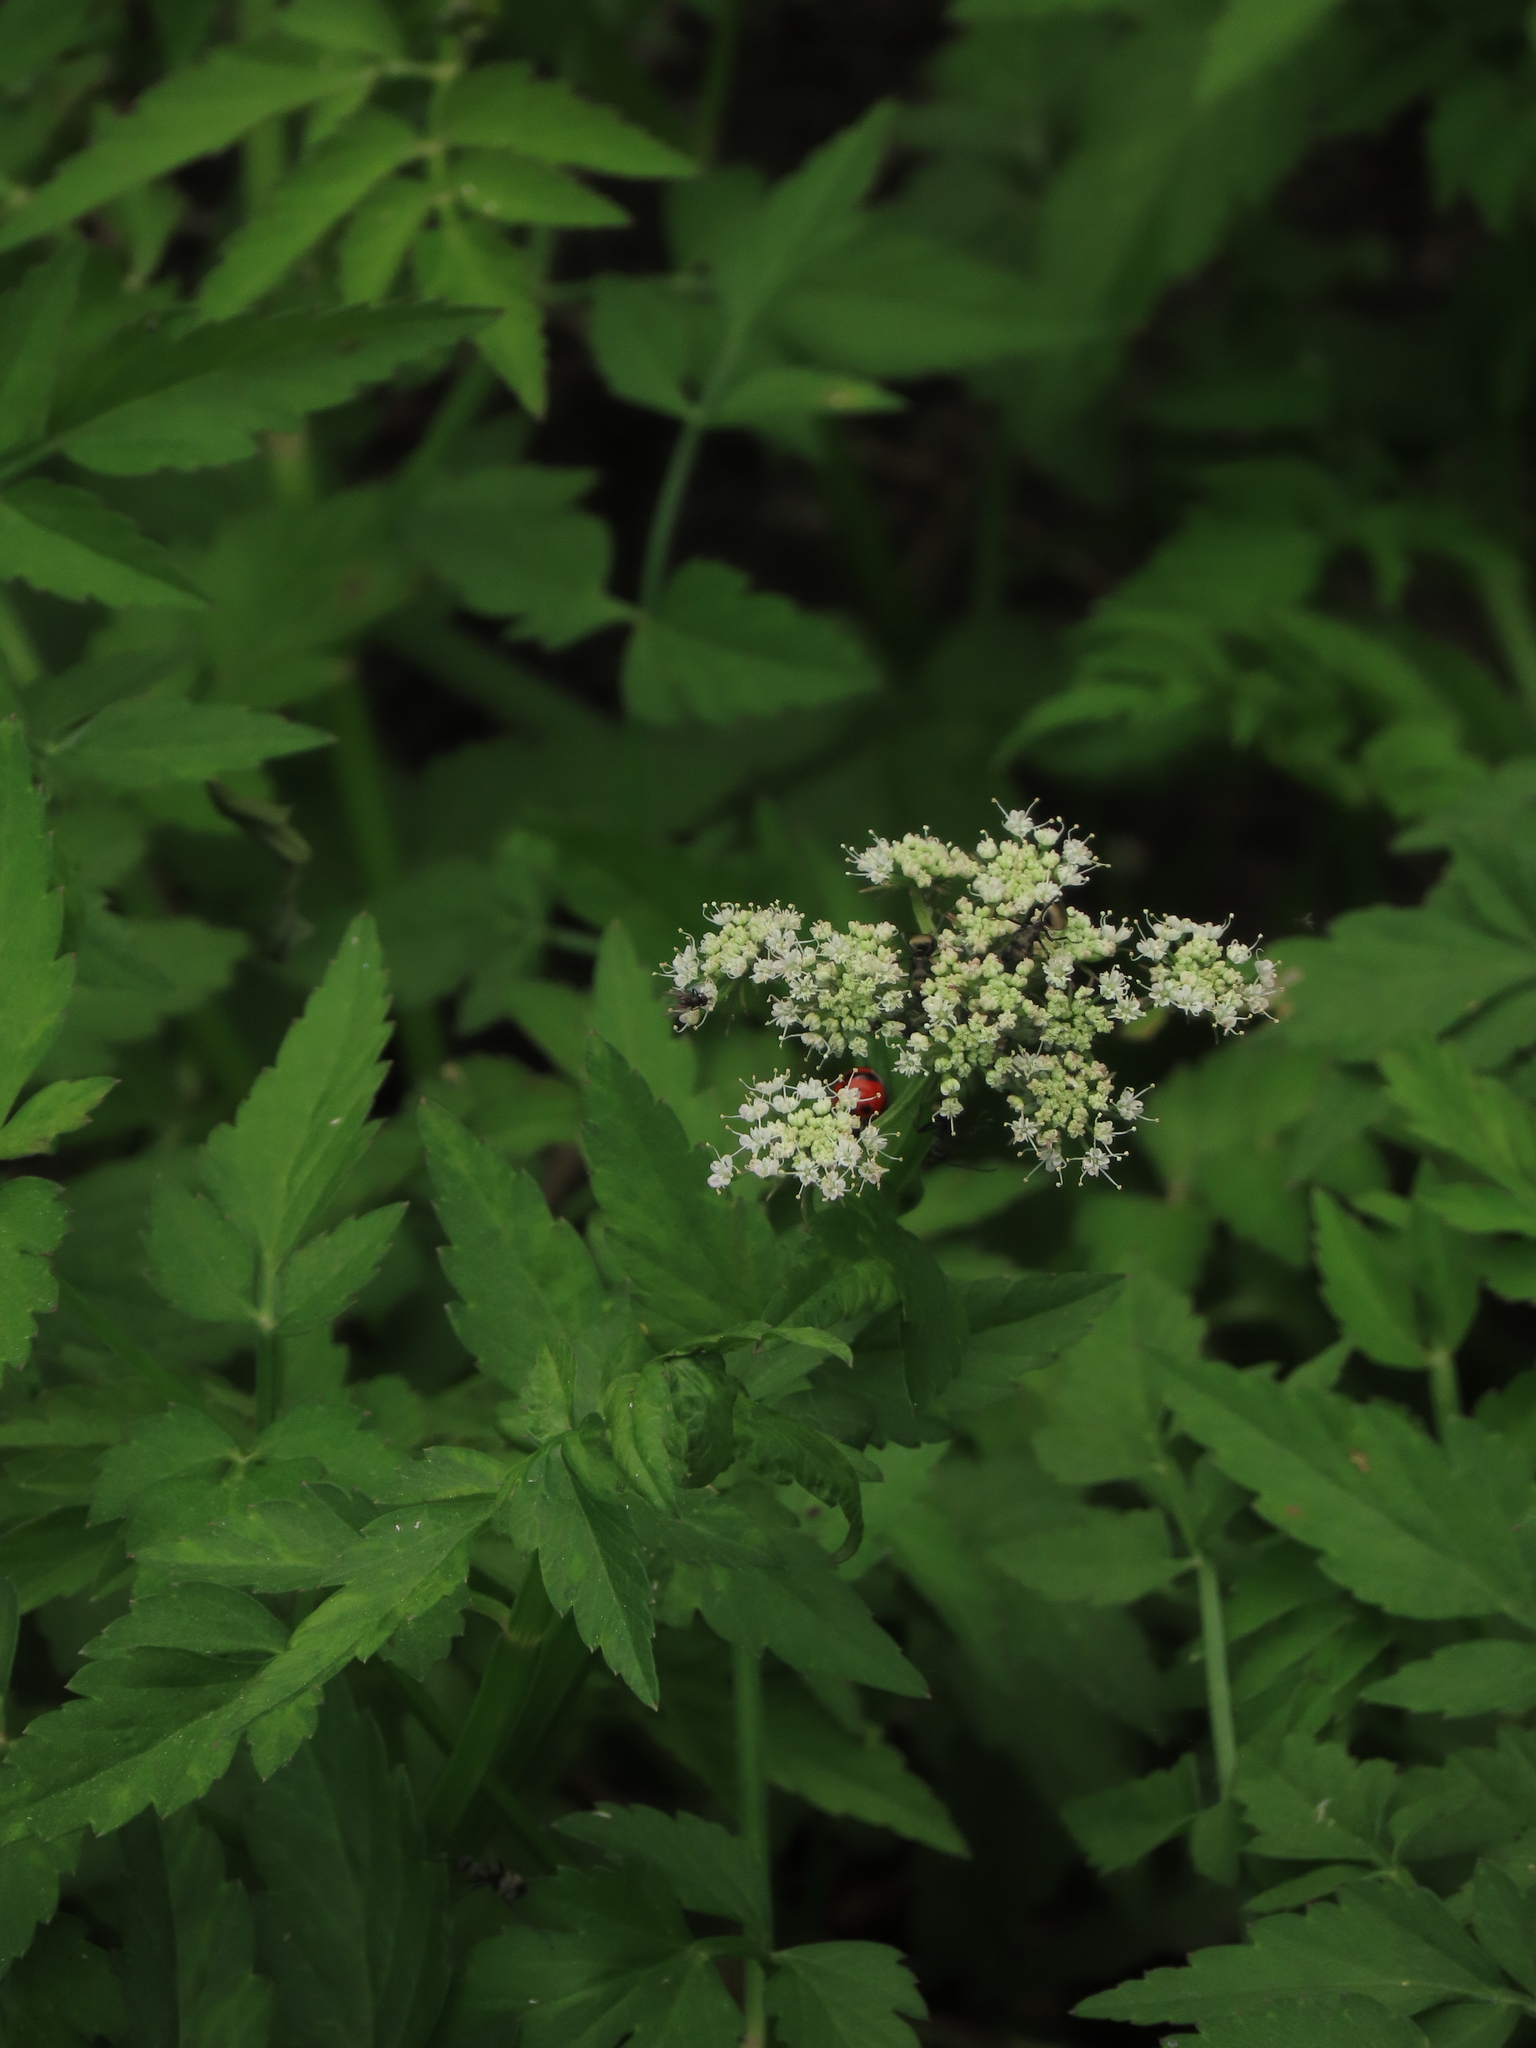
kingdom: Plantae
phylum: Tracheophyta
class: Magnoliopsida
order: Apiales
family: Apiaceae
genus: Oenanthe
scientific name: Oenanthe javanica
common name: Java water-dropwort
